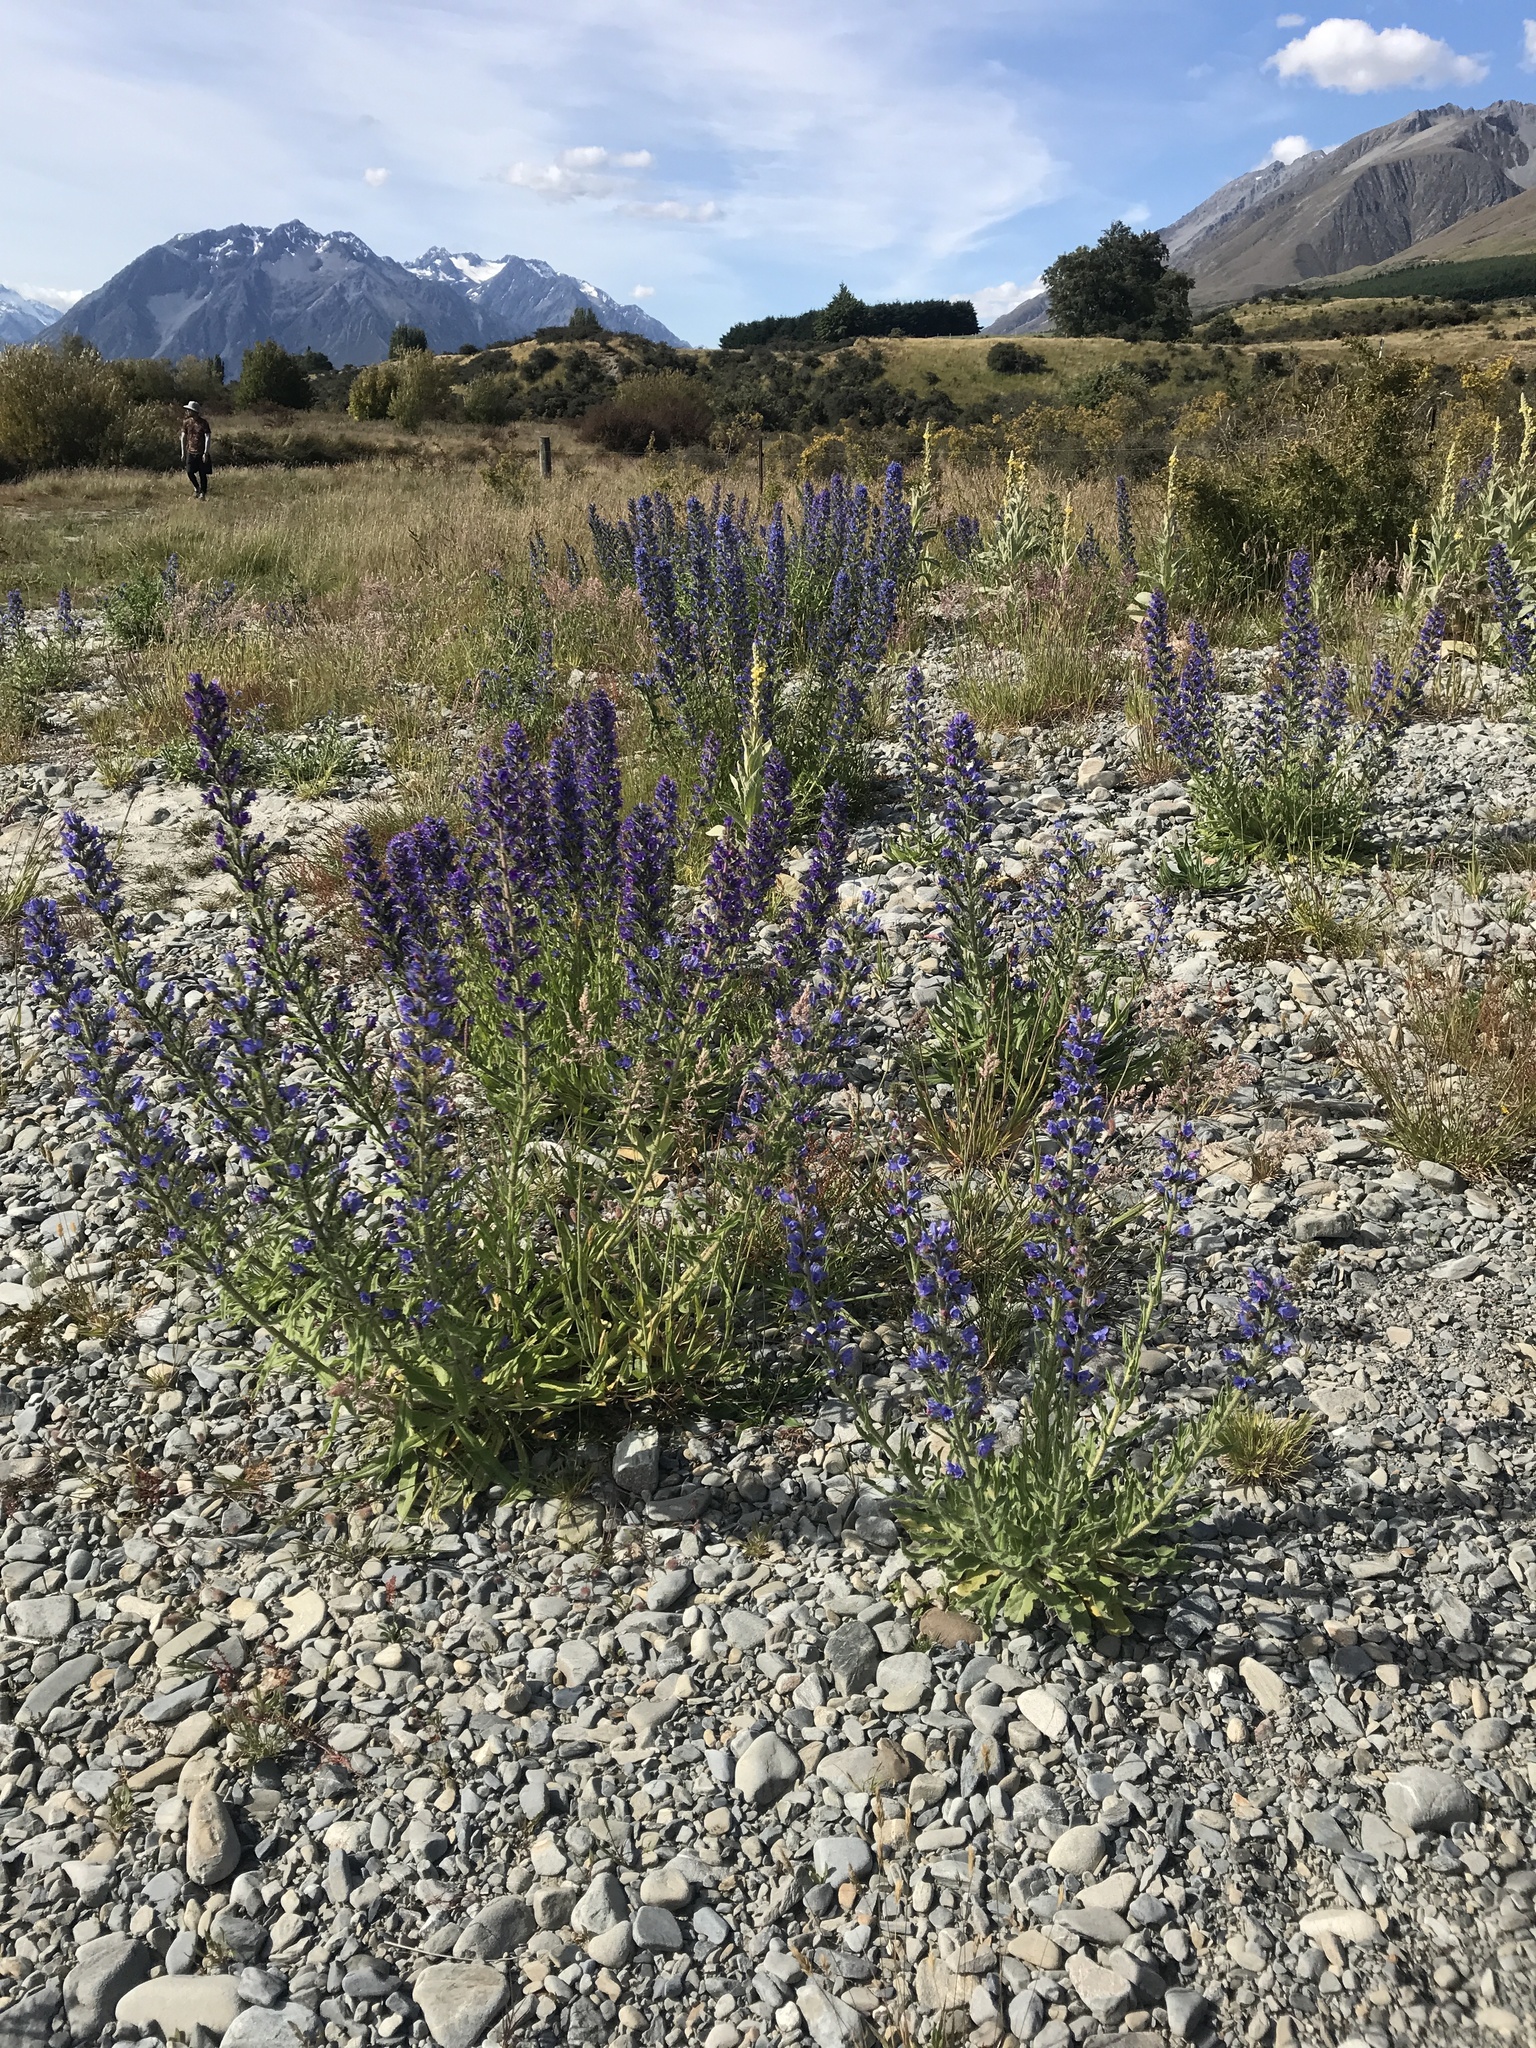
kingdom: Plantae
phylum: Tracheophyta
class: Magnoliopsida
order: Boraginales
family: Boraginaceae
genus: Echium
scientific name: Echium vulgare
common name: Common viper's bugloss
